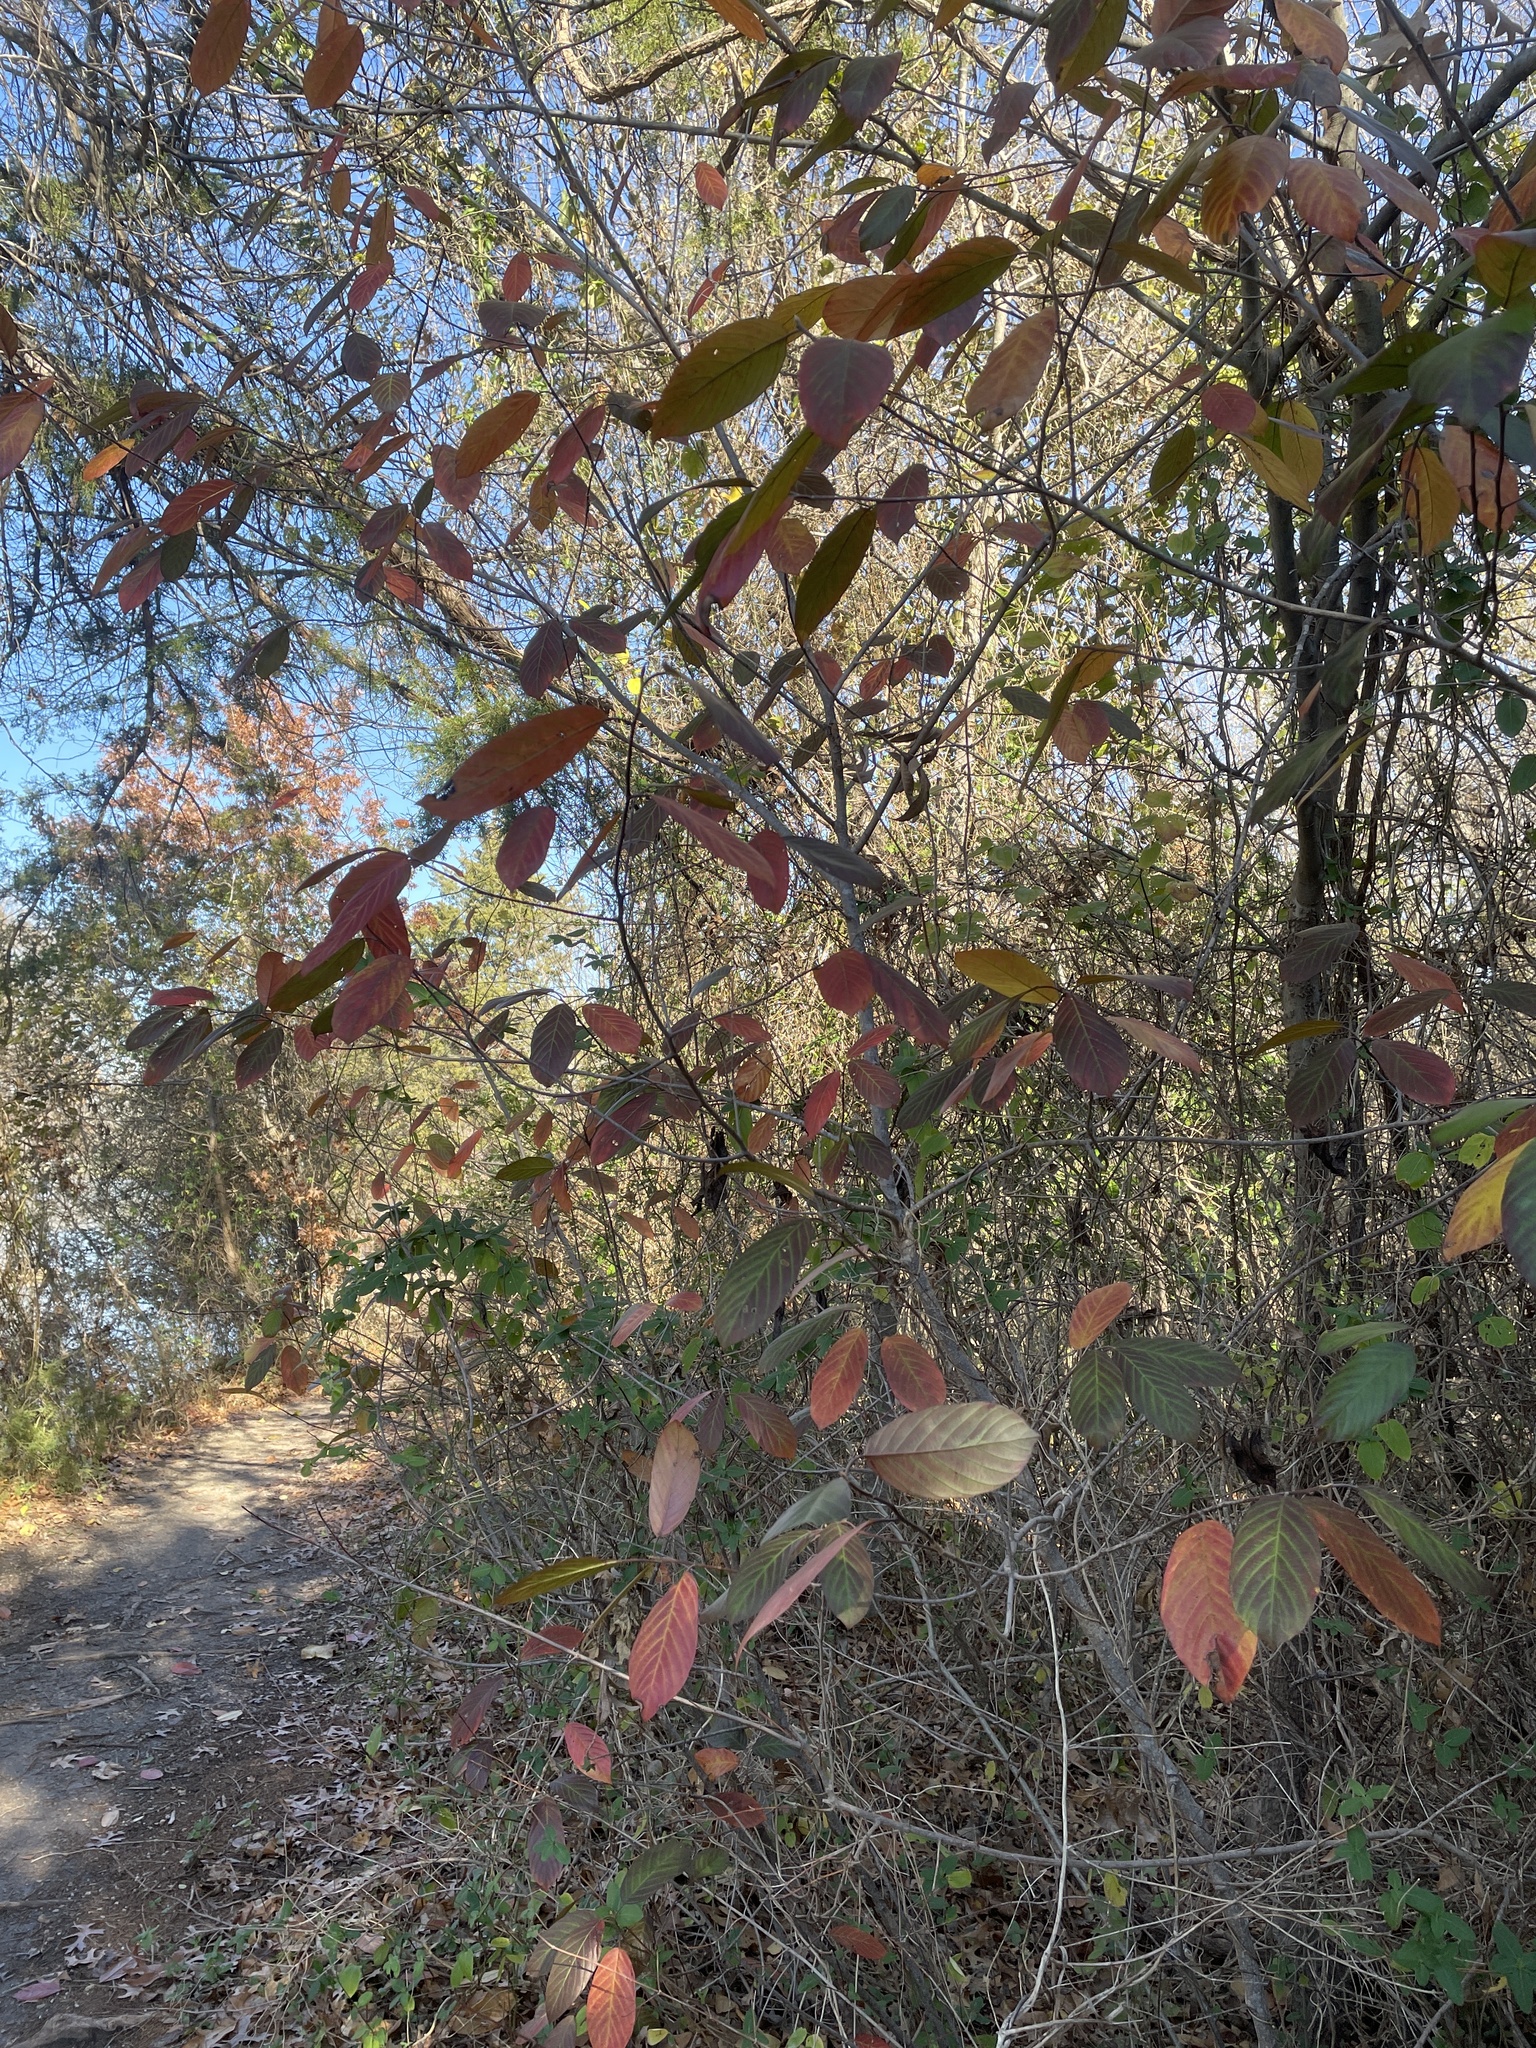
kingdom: Plantae
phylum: Tracheophyta
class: Magnoliopsida
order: Rosales
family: Rhamnaceae
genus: Frangula
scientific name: Frangula caroliniana
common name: Carolina buckthorn
